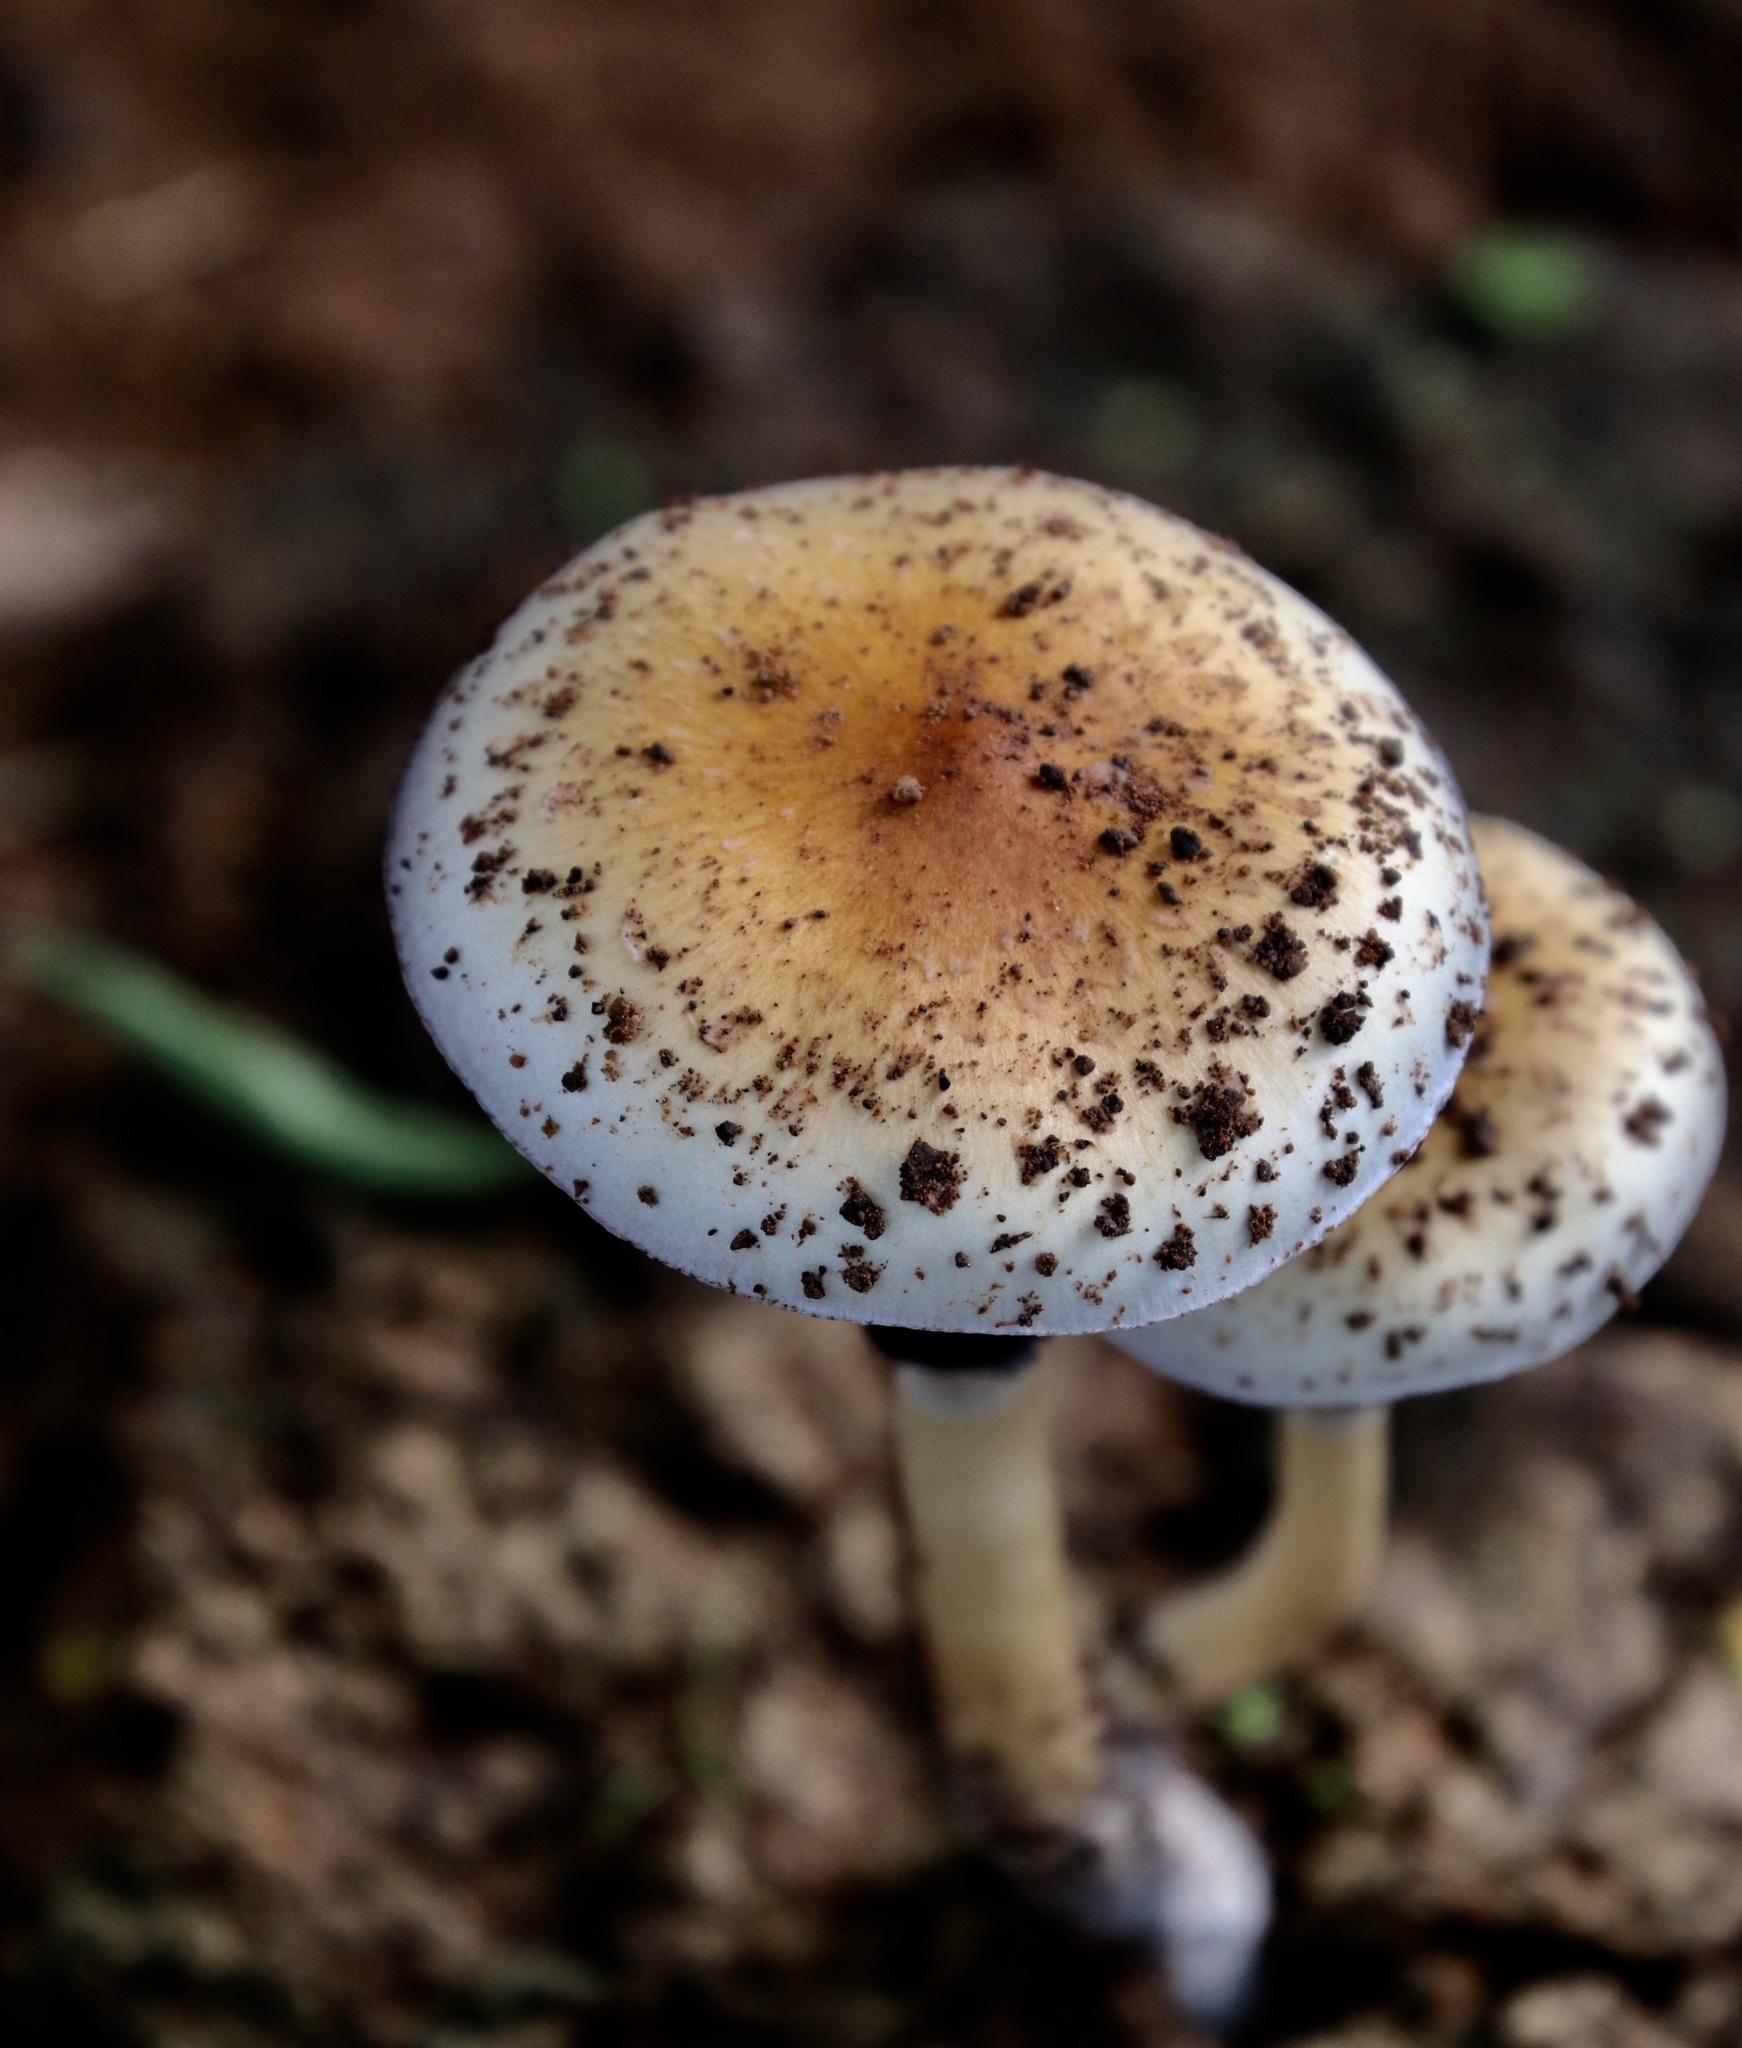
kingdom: Fungi
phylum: Basidiomycota
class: Agaricomycetes
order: Agaricales
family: Hymenogastraceae
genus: Psilocybe
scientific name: Psilocybe cubensis
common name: Golden brownie
